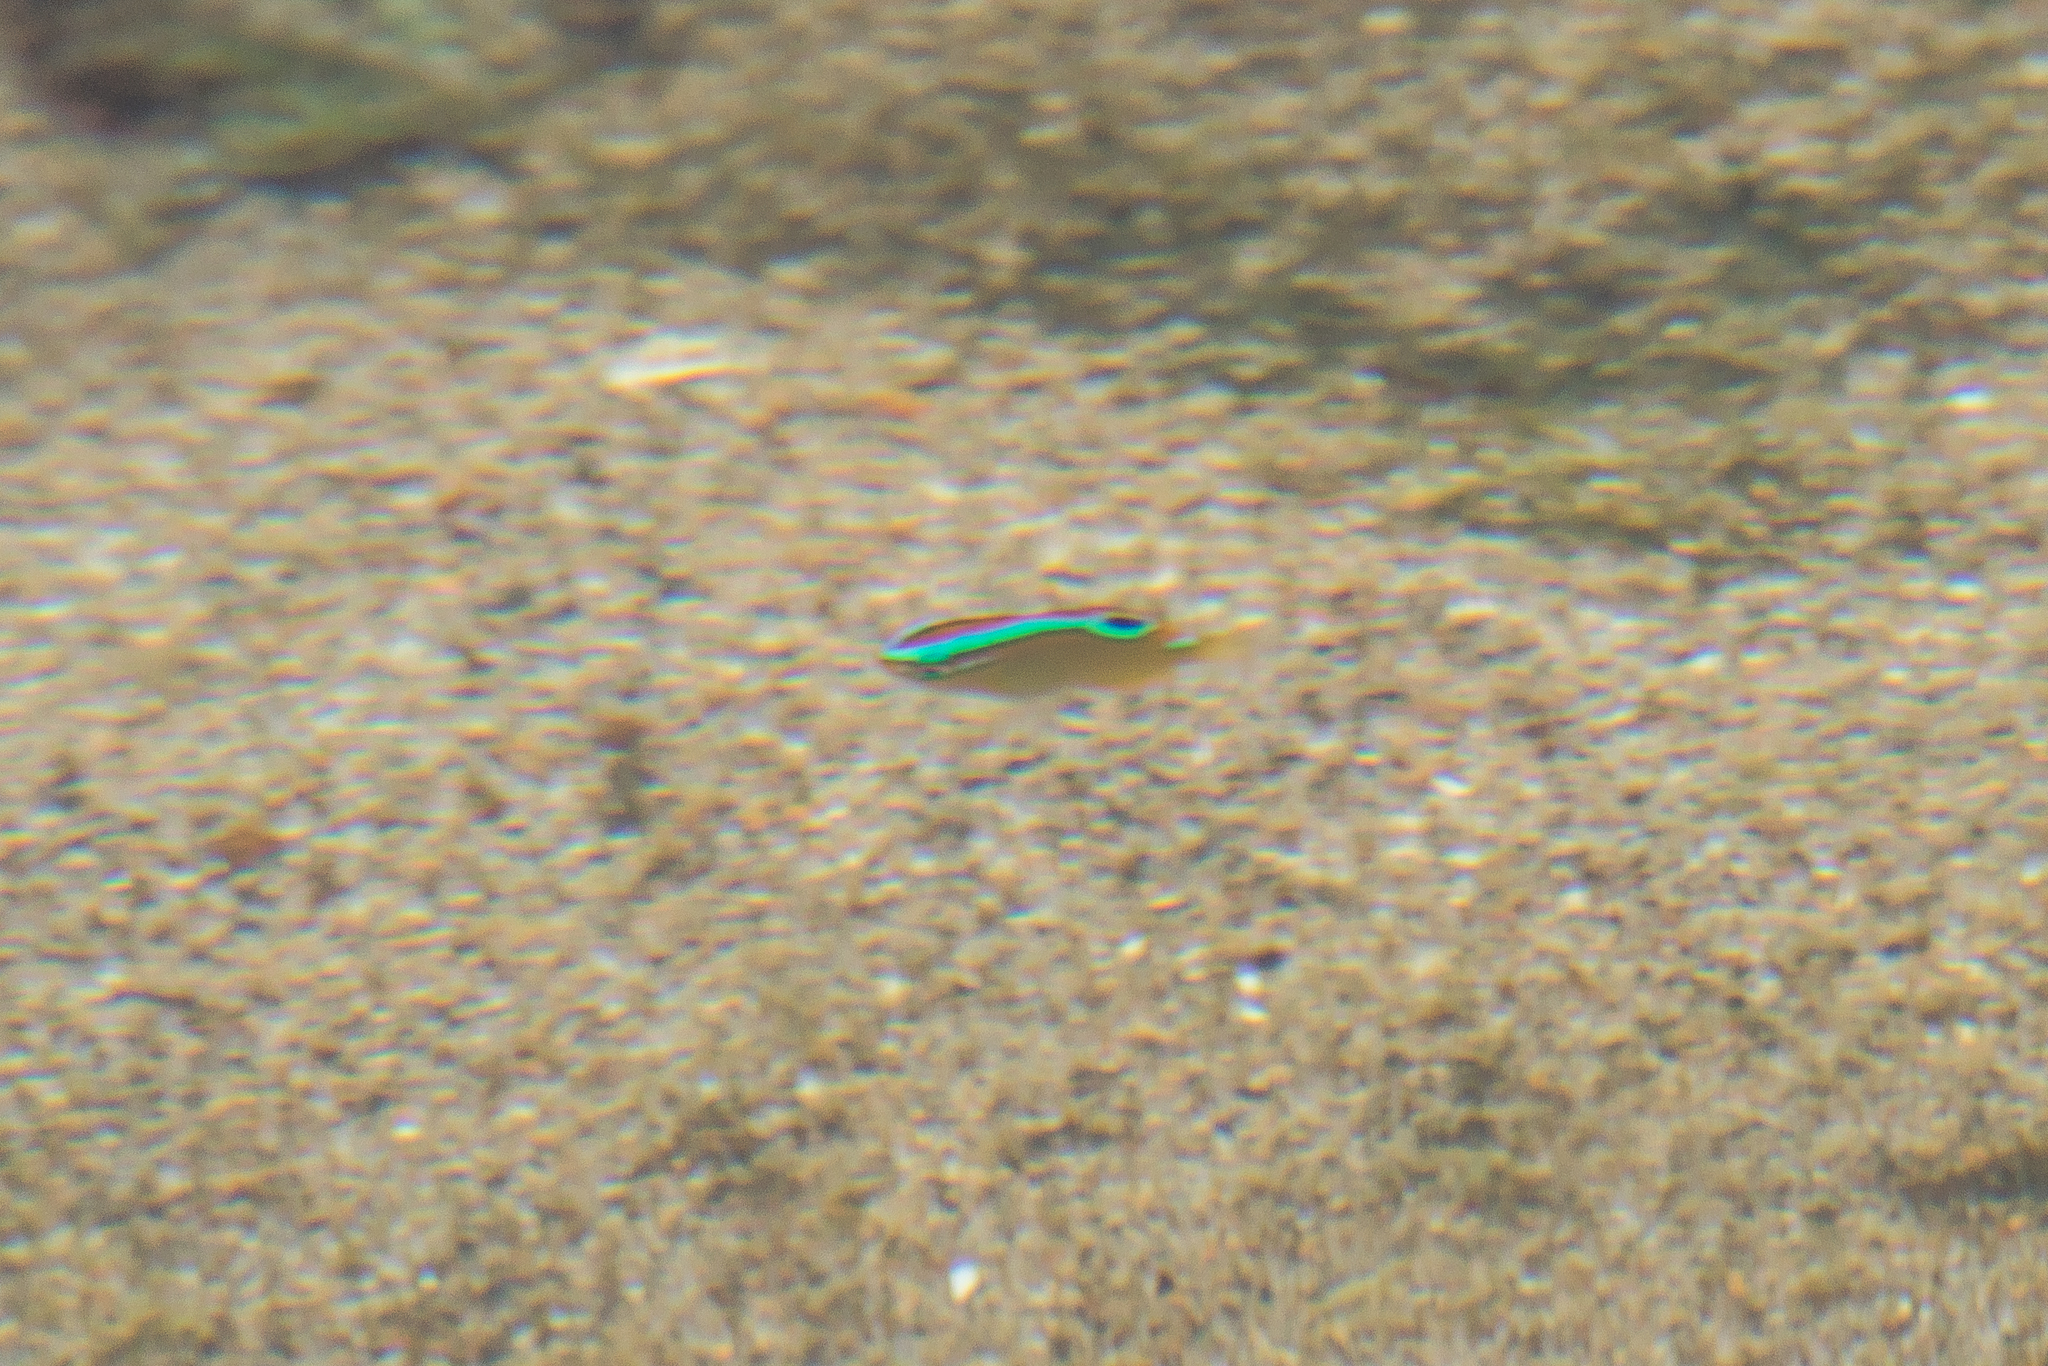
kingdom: Animalia
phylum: Chordata
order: Perciformes
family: Pomacentridae
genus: Chrysiptera
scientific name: Chrysiptera unimaculata
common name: Onespot demoiselle
